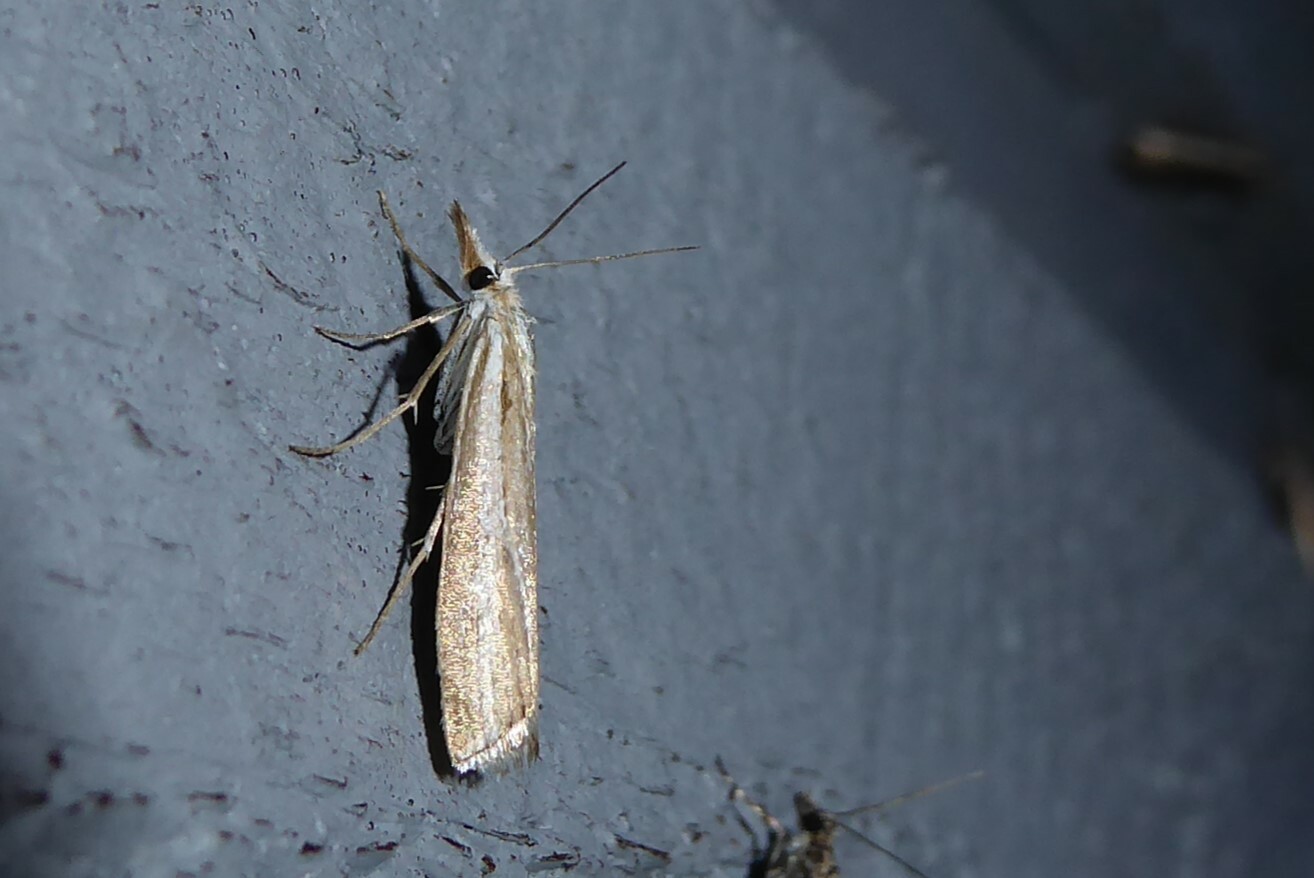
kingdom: Animalia
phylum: Arthropoda
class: Insecta
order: Lepidoptera
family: Crambidae
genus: Orocrambus
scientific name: Orocrambus vittellus
